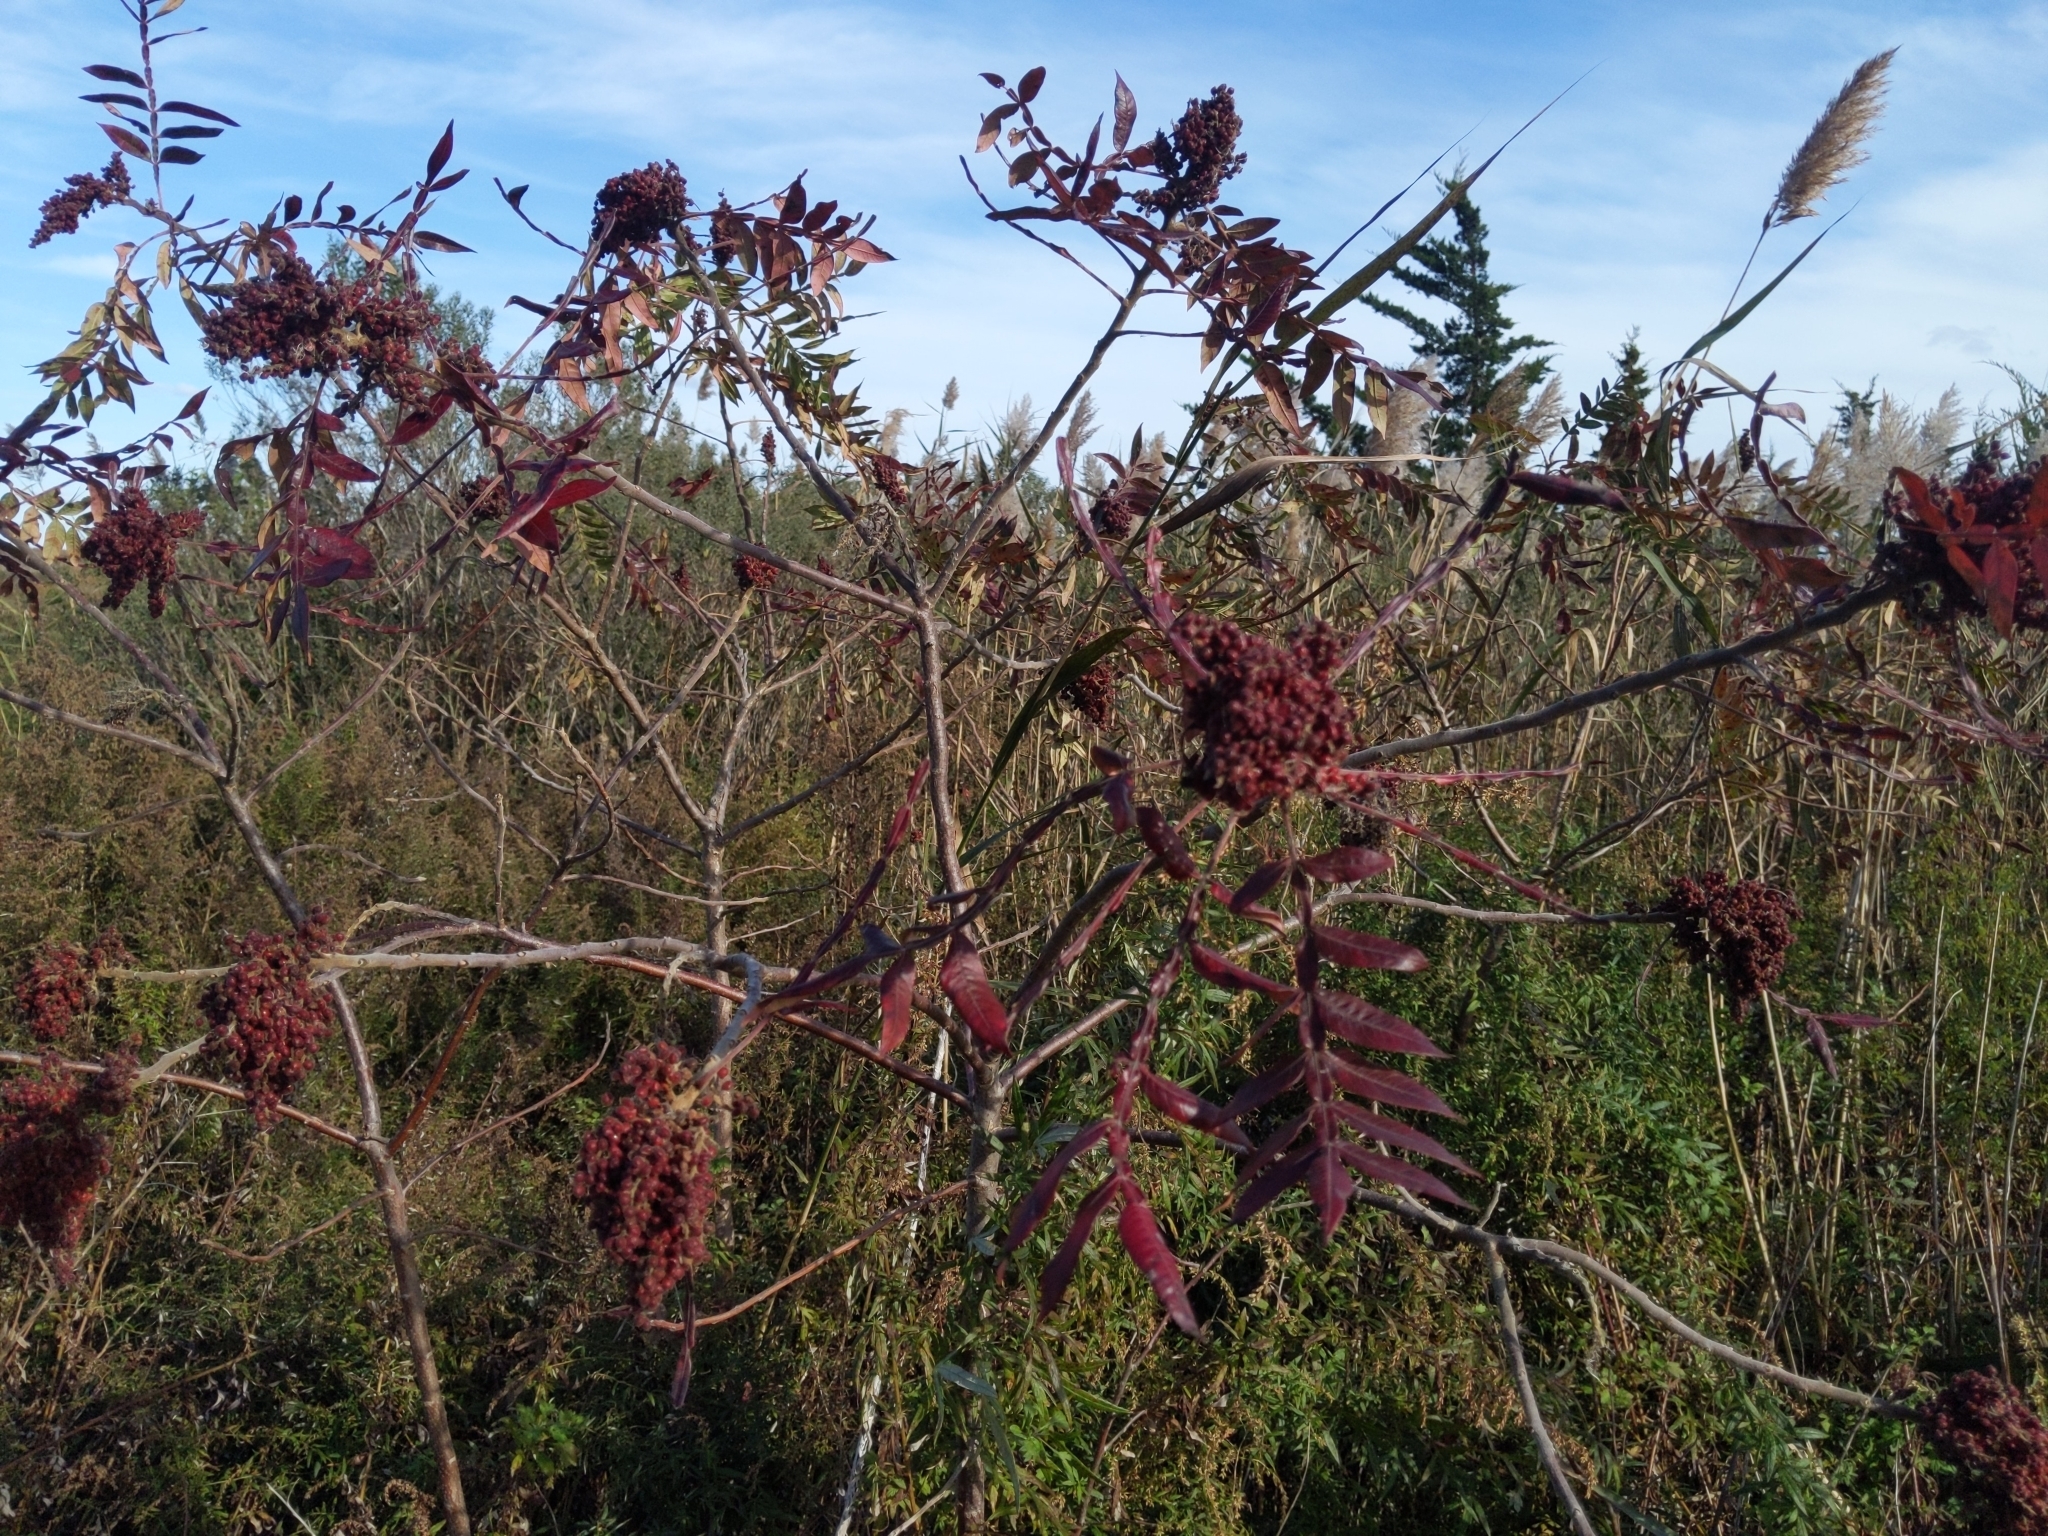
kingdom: Plantae
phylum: Tracheophyta
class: Magnoliopsida
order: Sapindales
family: Anacardiaceae
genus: Rhus
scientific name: Rhus copallina
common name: Shining sumac
